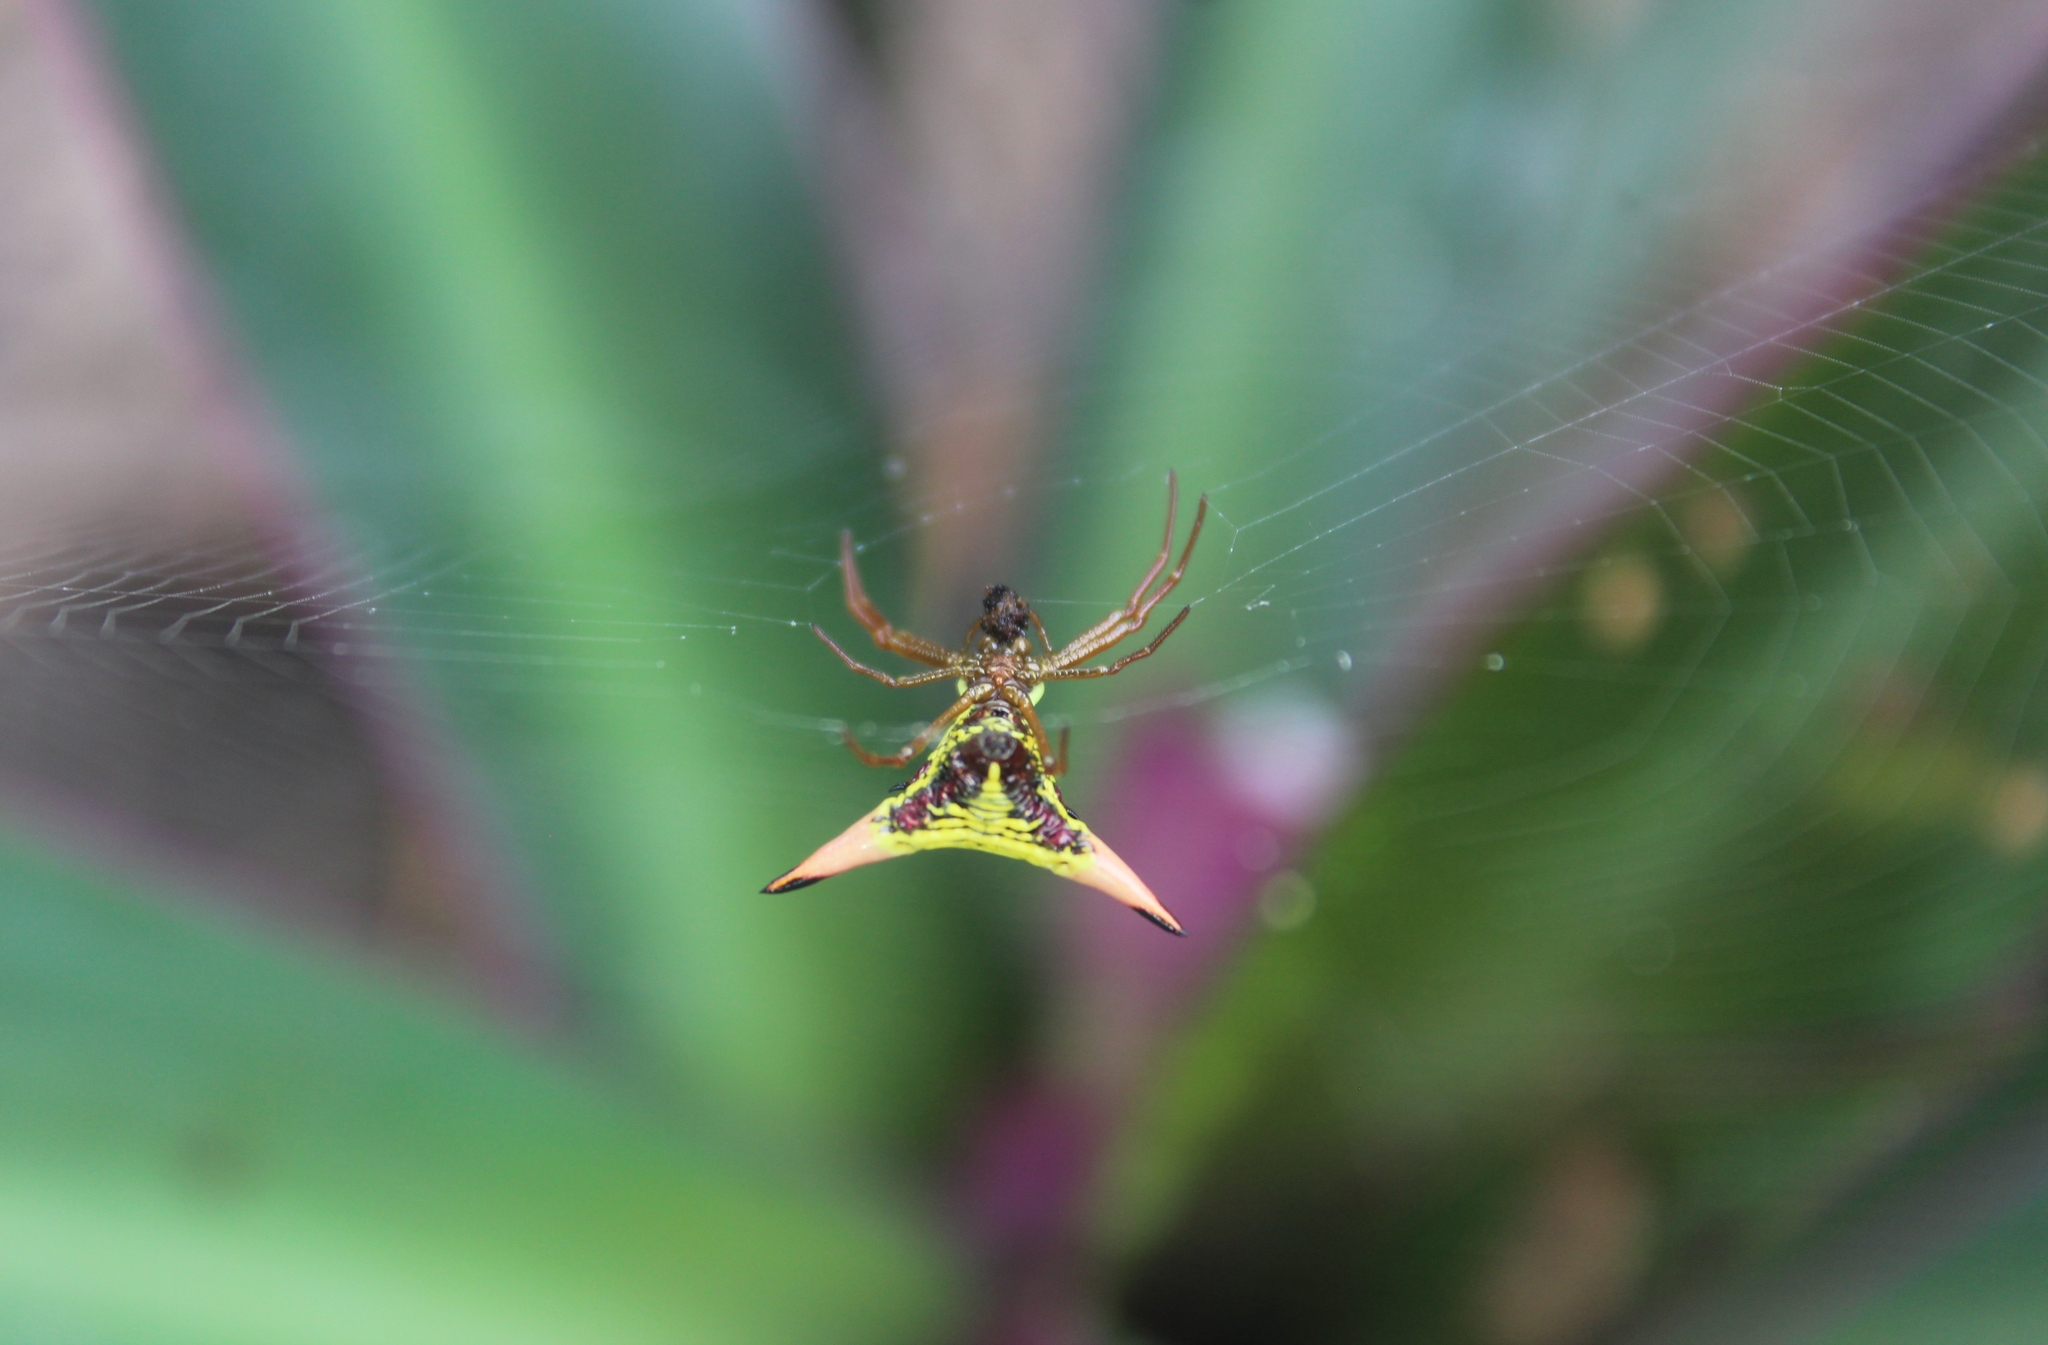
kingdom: Animalia
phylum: Arthropoda
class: Arachnida
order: Araneae
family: Araneidae
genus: Micrathena
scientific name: Micrathena sagittata
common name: Orb weavers
